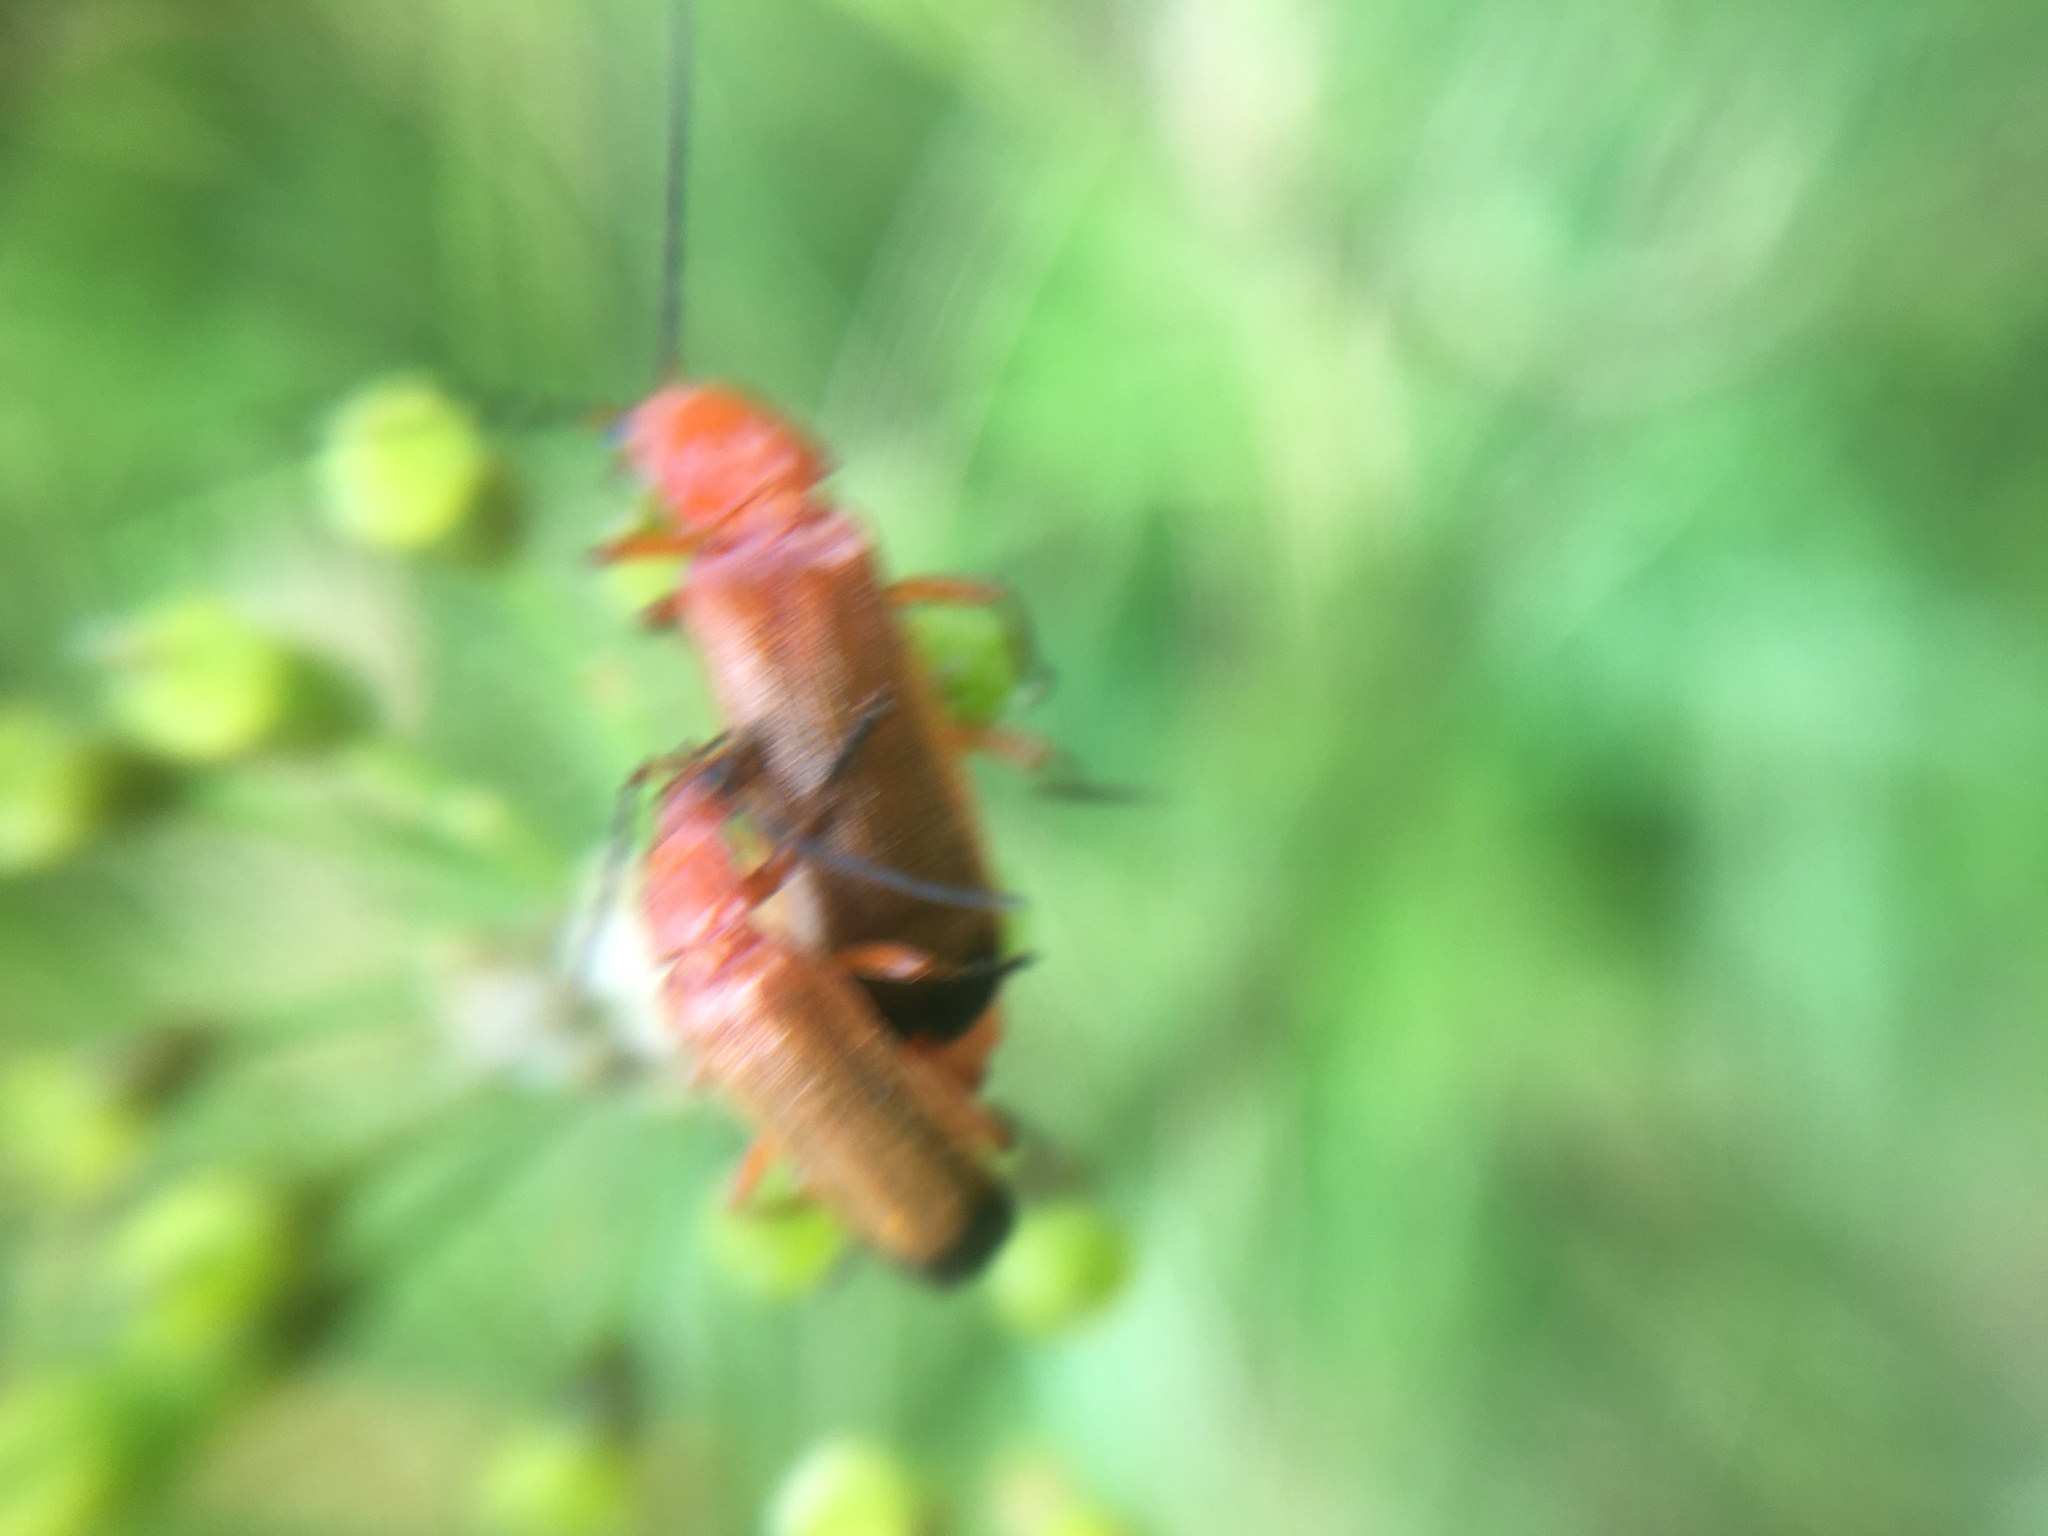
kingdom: Animalia
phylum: Arthropoda
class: Insecta
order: Coleoptera
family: Cantharidae
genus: Rhagonycha
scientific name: Rhagonycha fulva
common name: Common red soldier beetle
